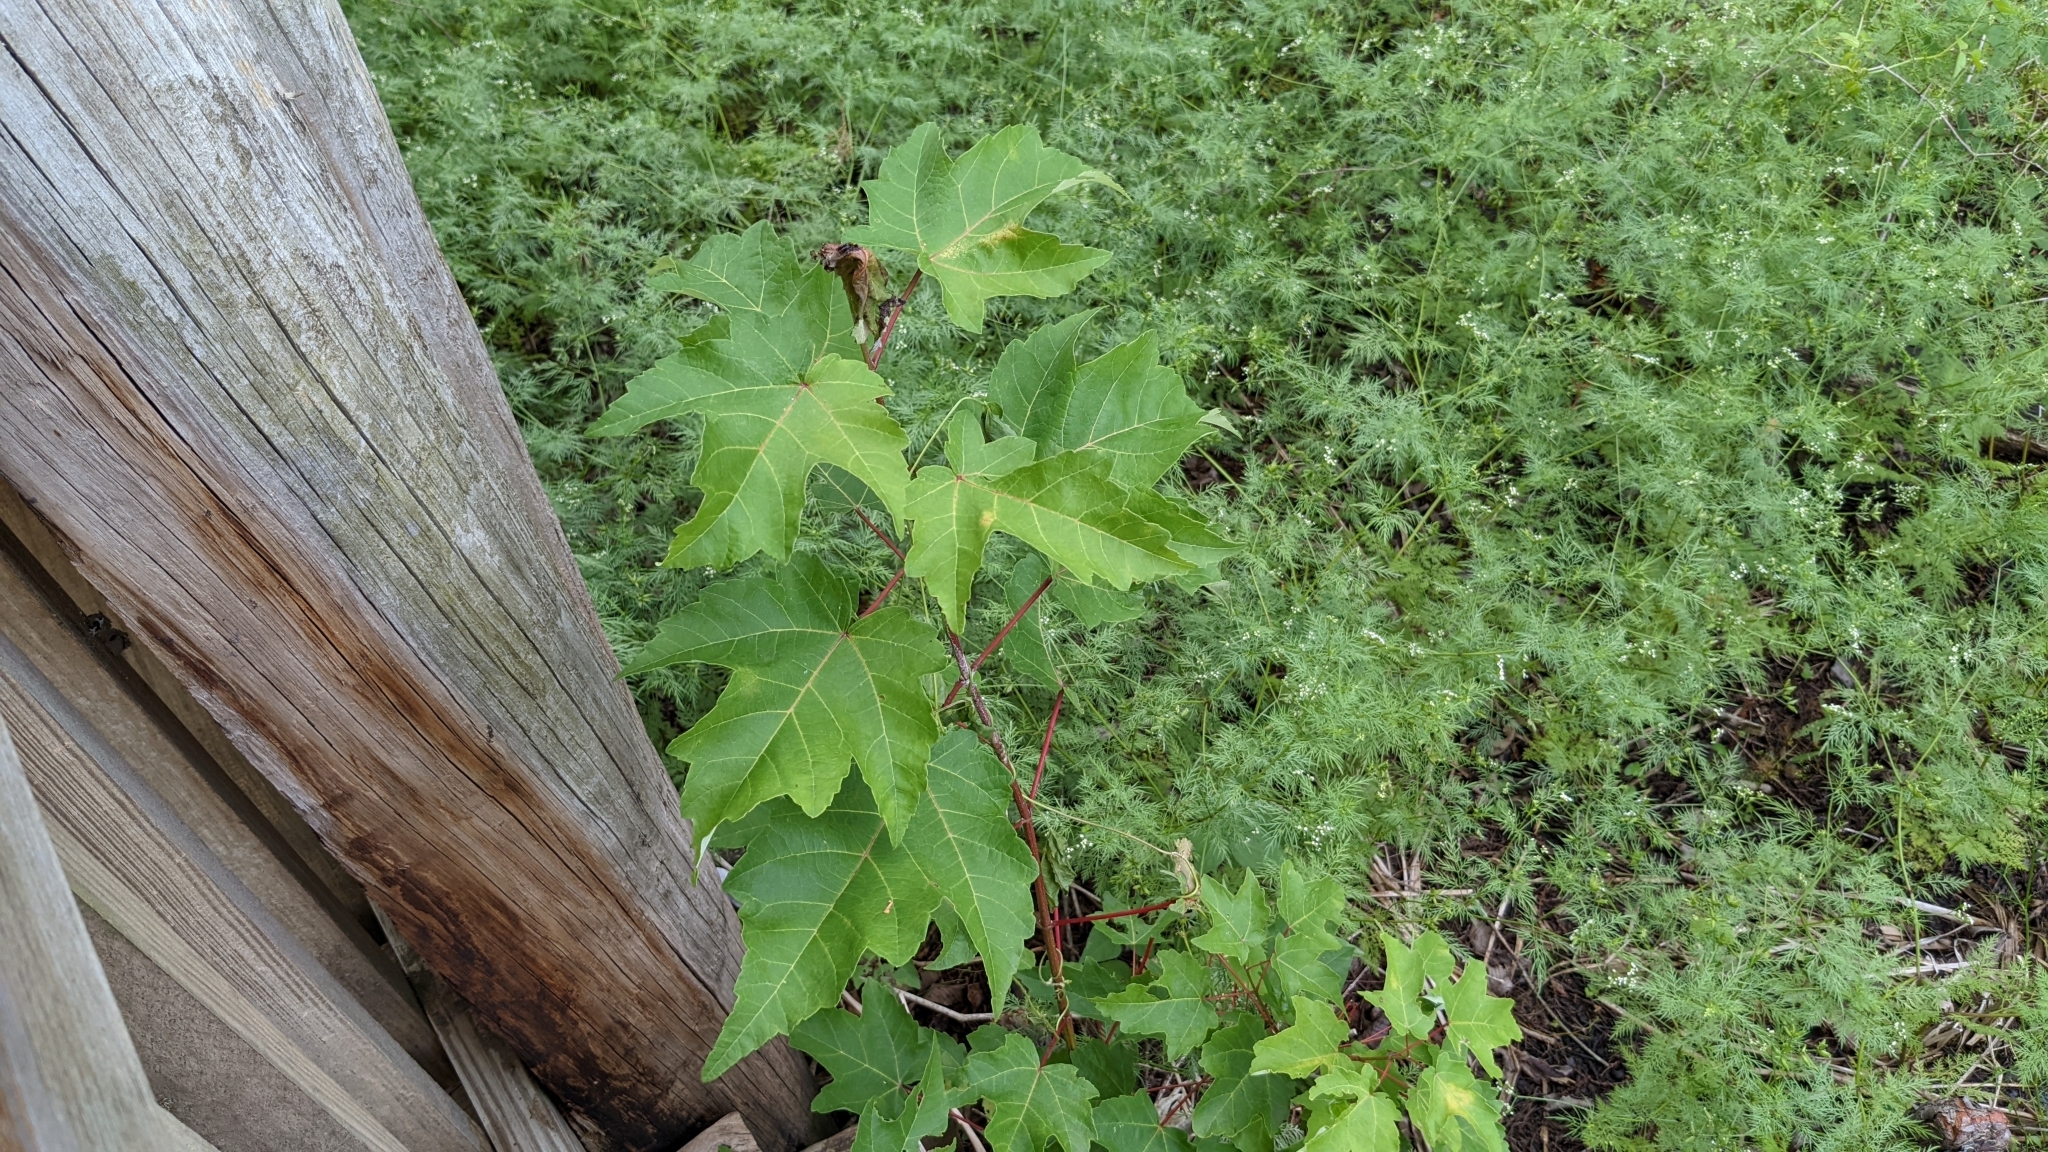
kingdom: Plantae
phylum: Tracheophyta
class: Magnoliopsida
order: Sapindales
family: Sapindaceae
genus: Acer
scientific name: Acer rubrum
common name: Red maple
